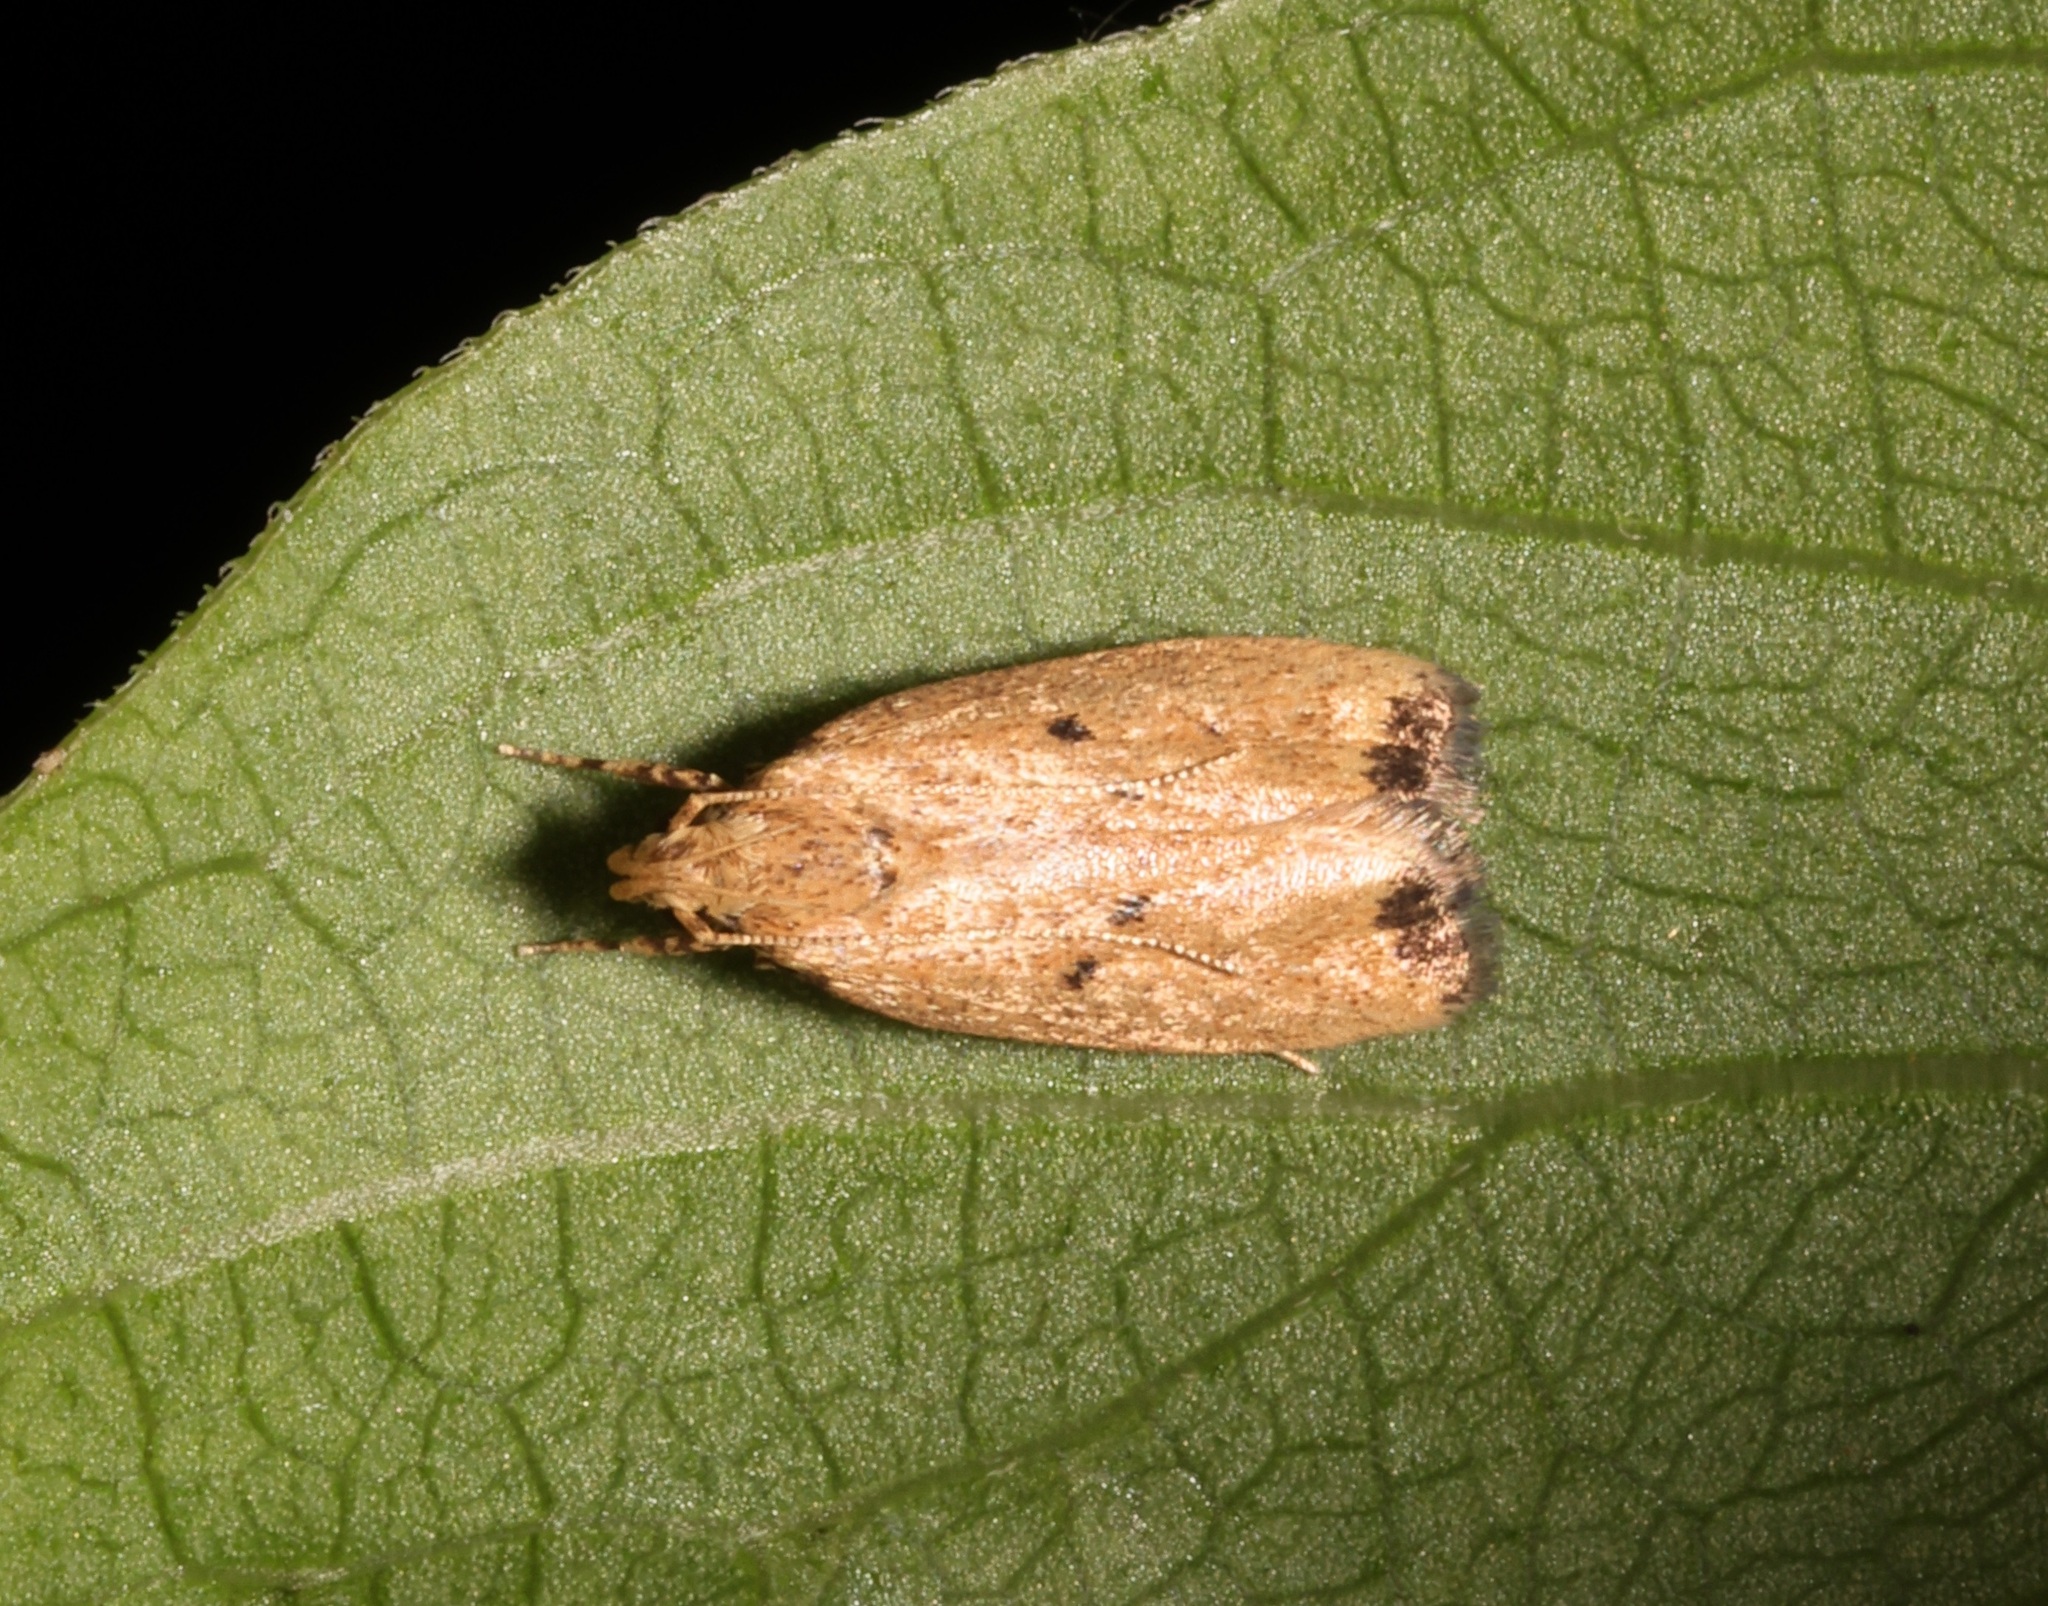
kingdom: Animalia
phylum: Arthropoda
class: Insecta
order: Lepidoptera
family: Autostichidae
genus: Ripeacma
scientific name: Ripeacma ventilatiformis
